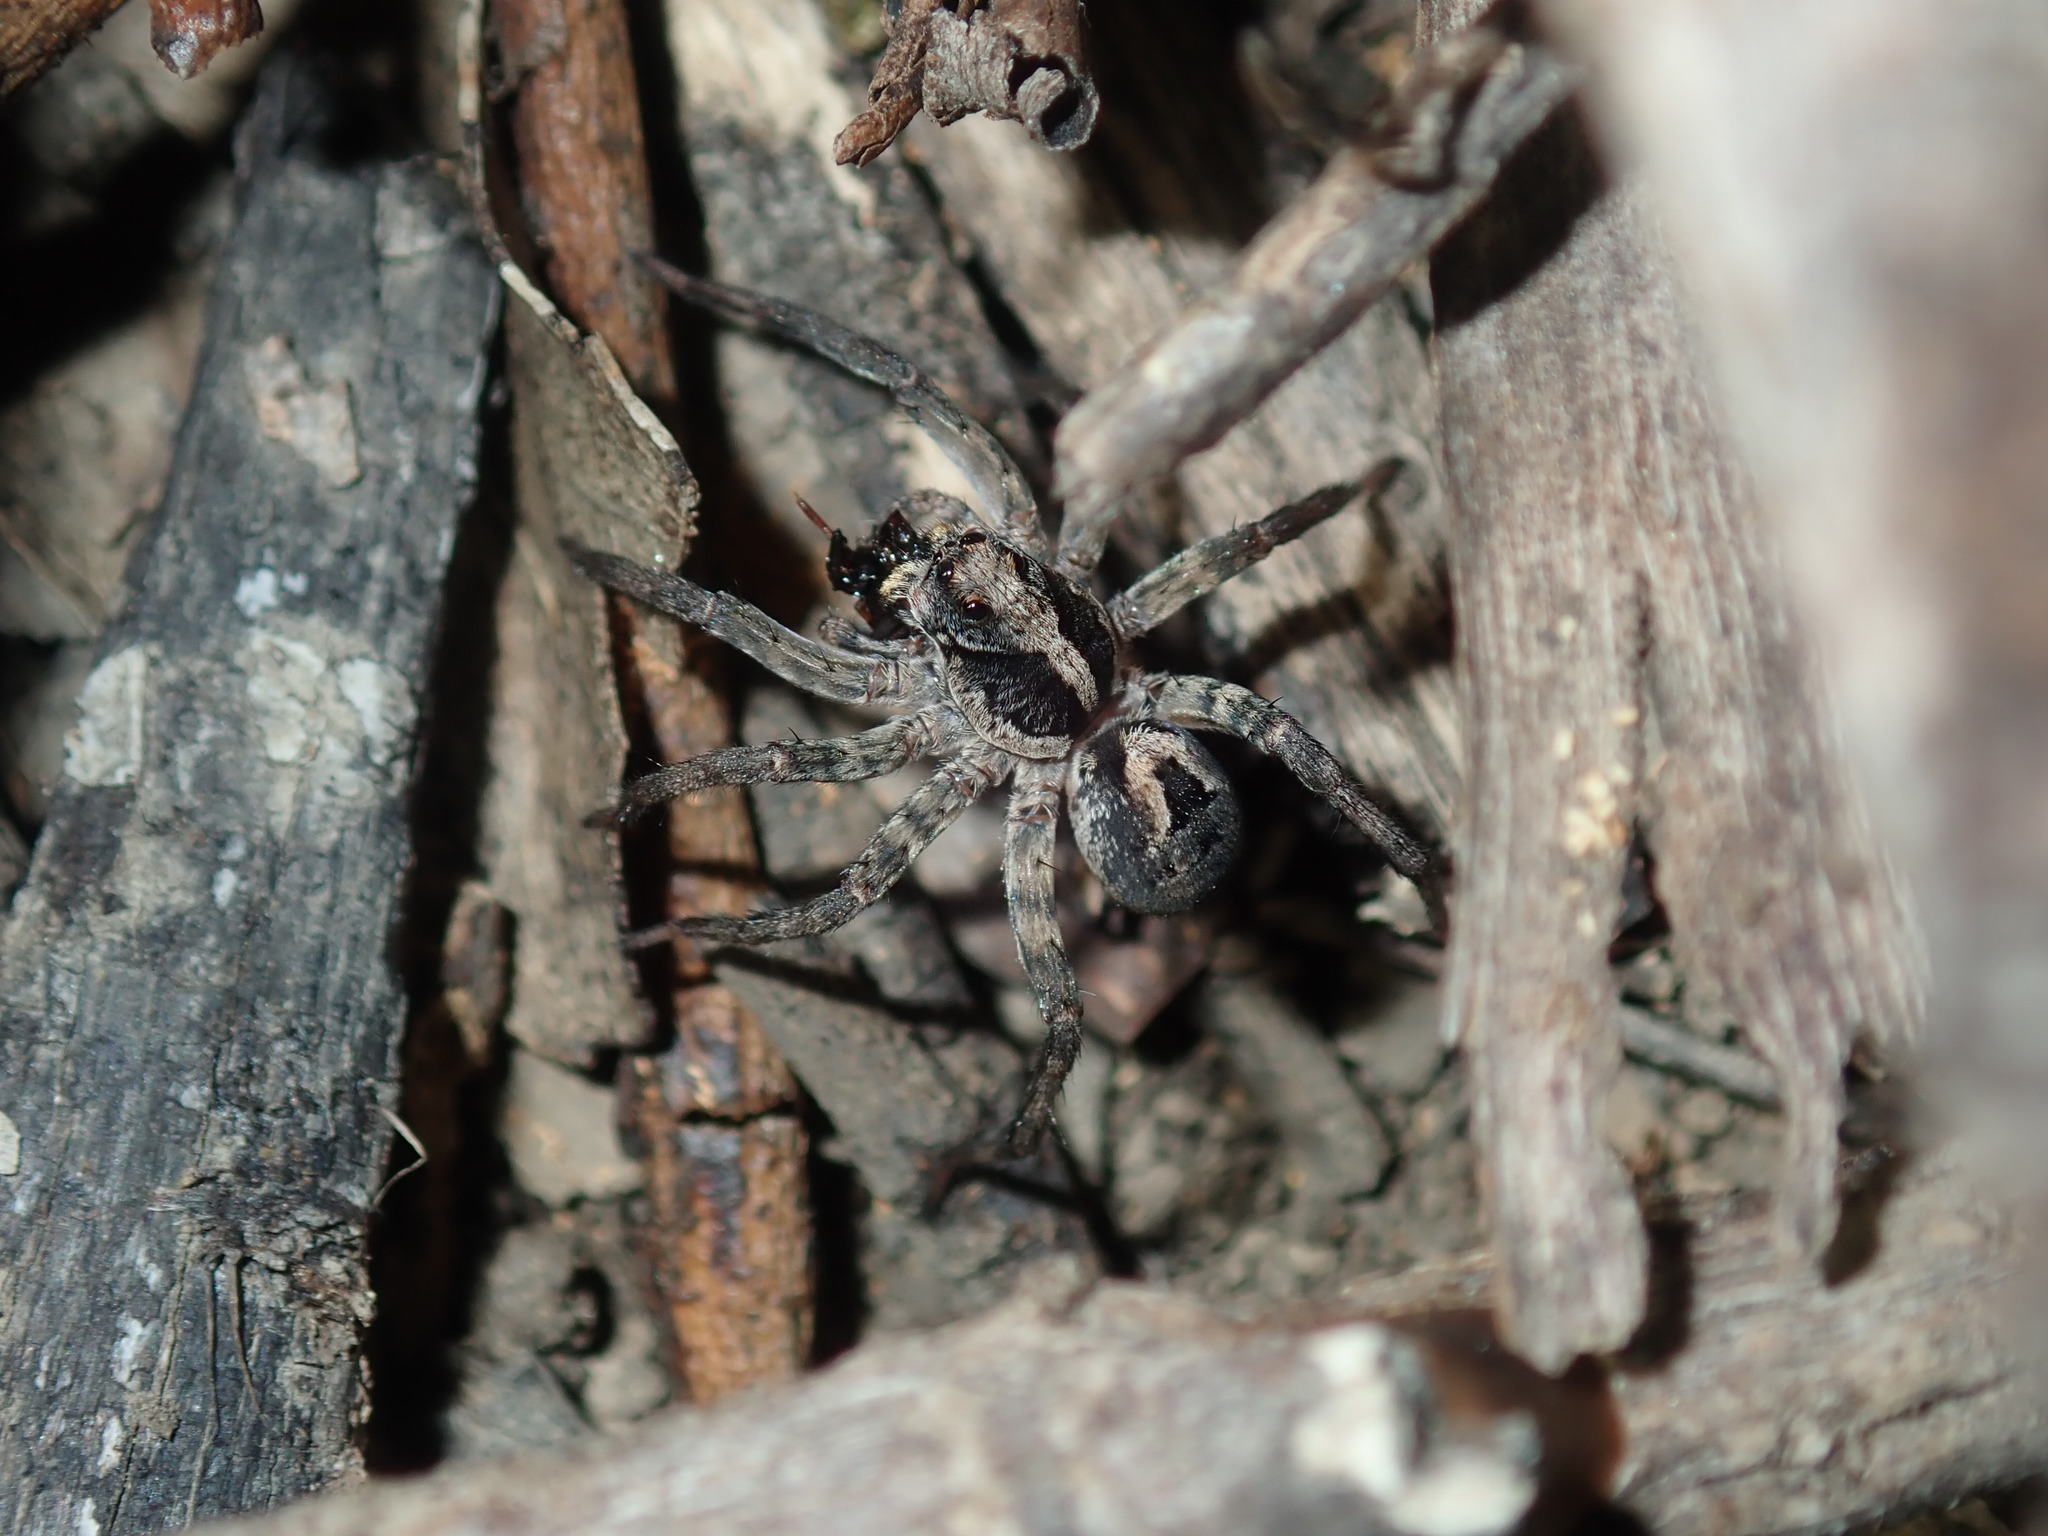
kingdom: Animalia
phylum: Arthropoda
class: Arachnida
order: Araneae
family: Lycosidae
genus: Venator
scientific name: Venator spenceri
